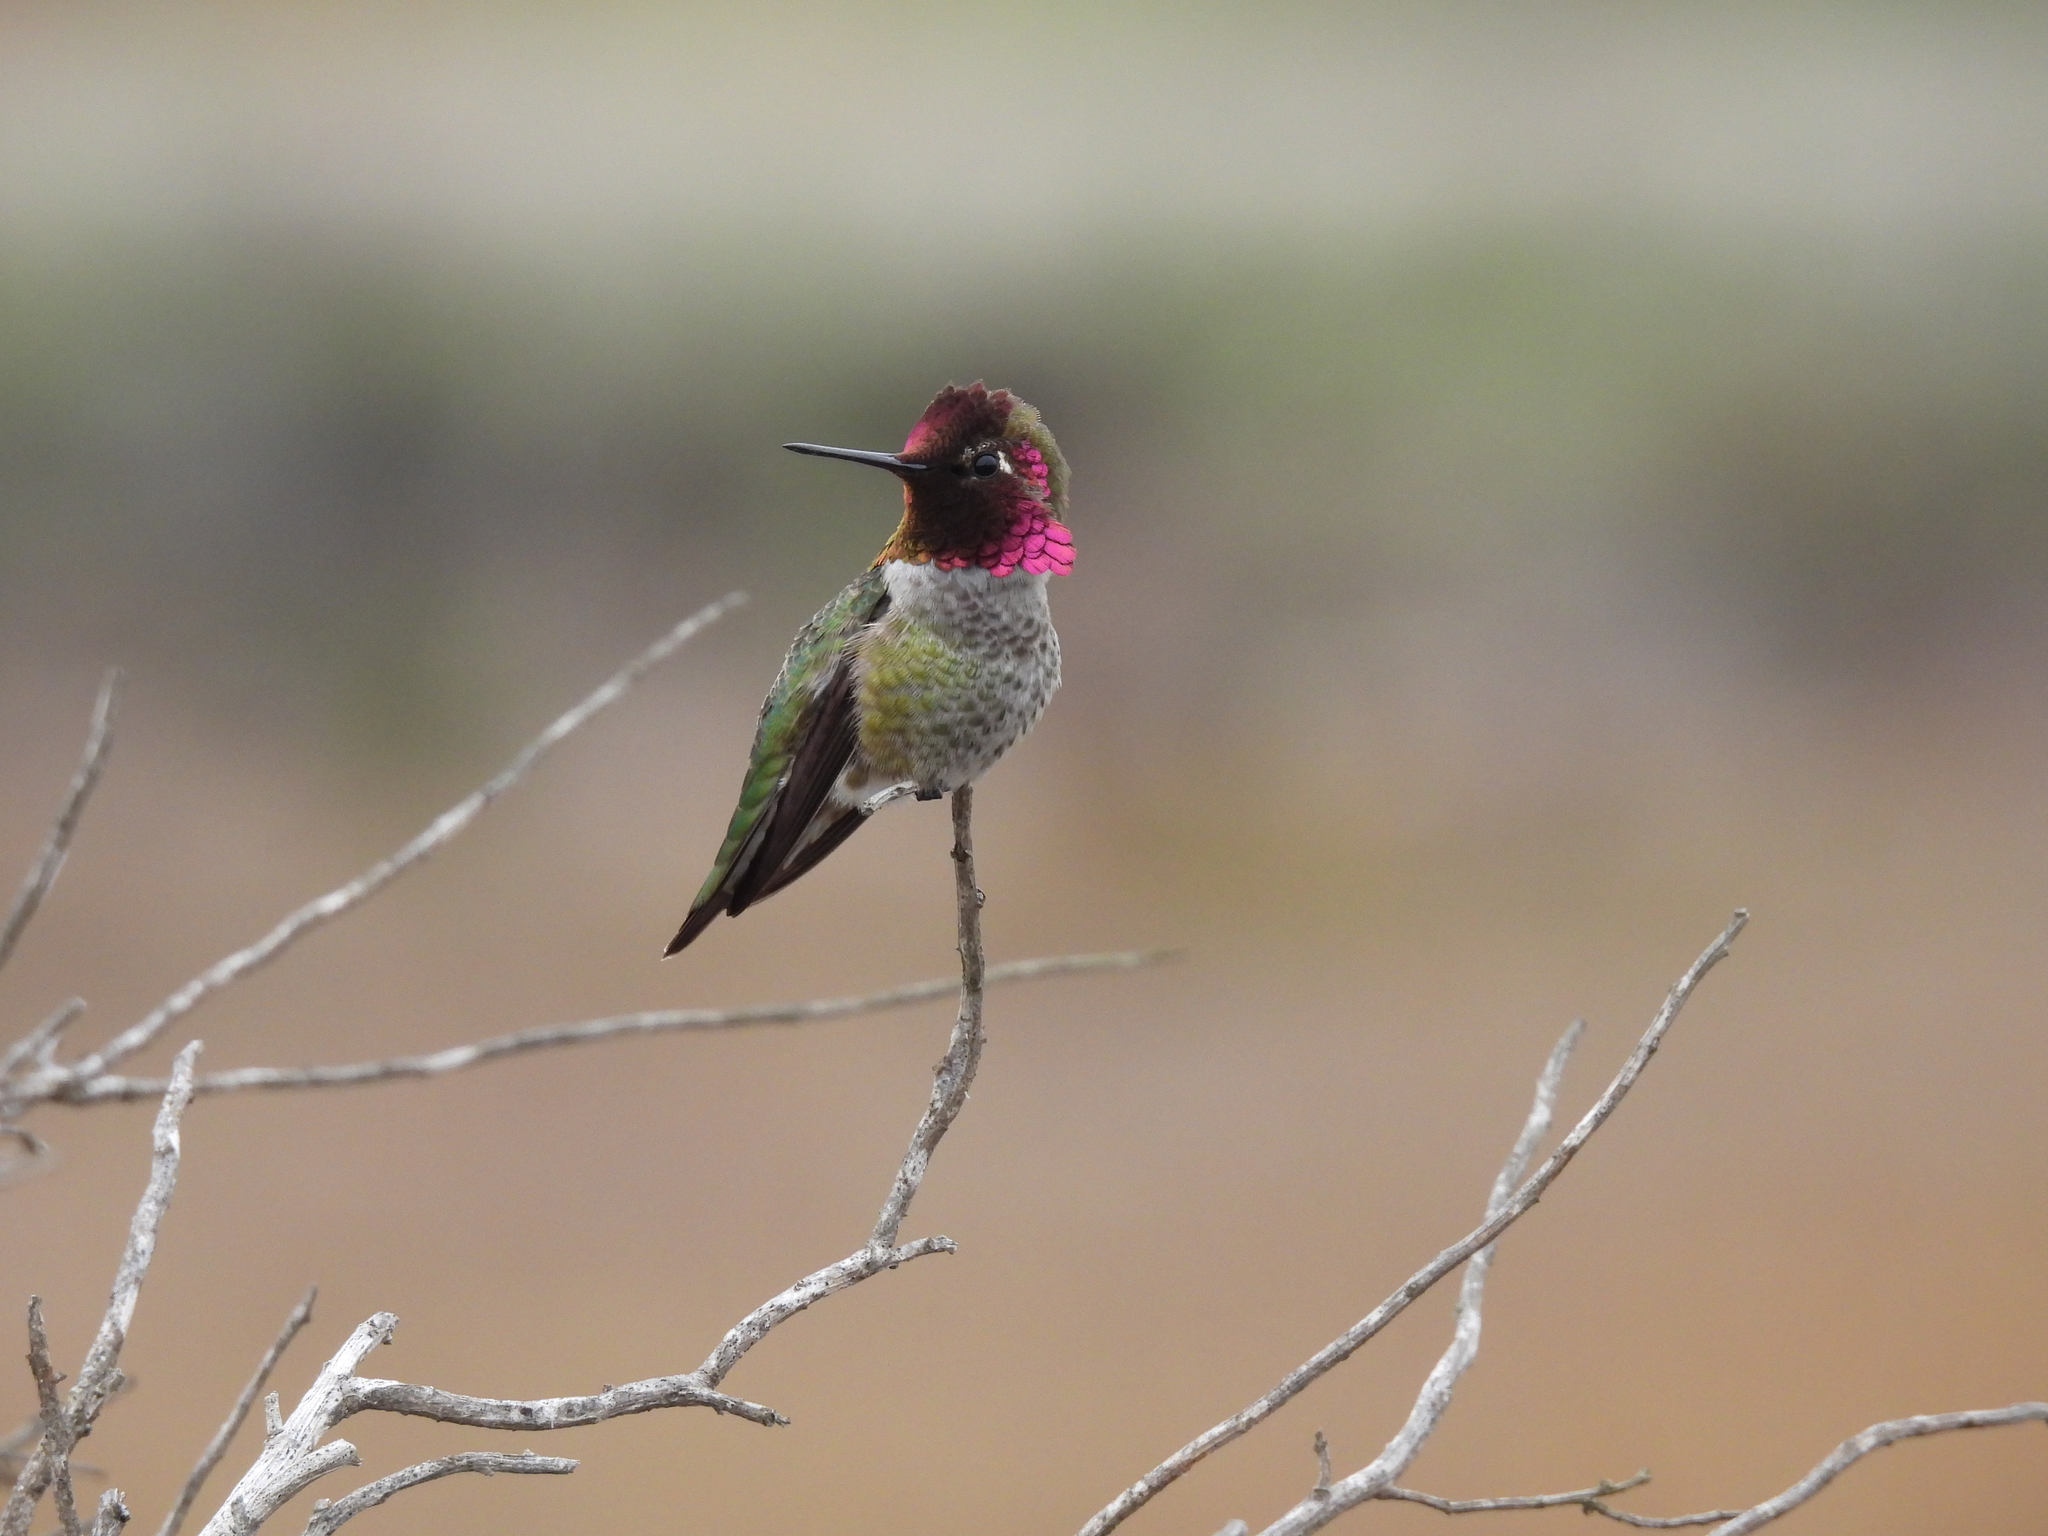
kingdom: Animalia
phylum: Chordata
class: Aves
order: Apodiformes
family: Trochilidae
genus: Calypte
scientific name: Calypte anna
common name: Anna's hummingbird
